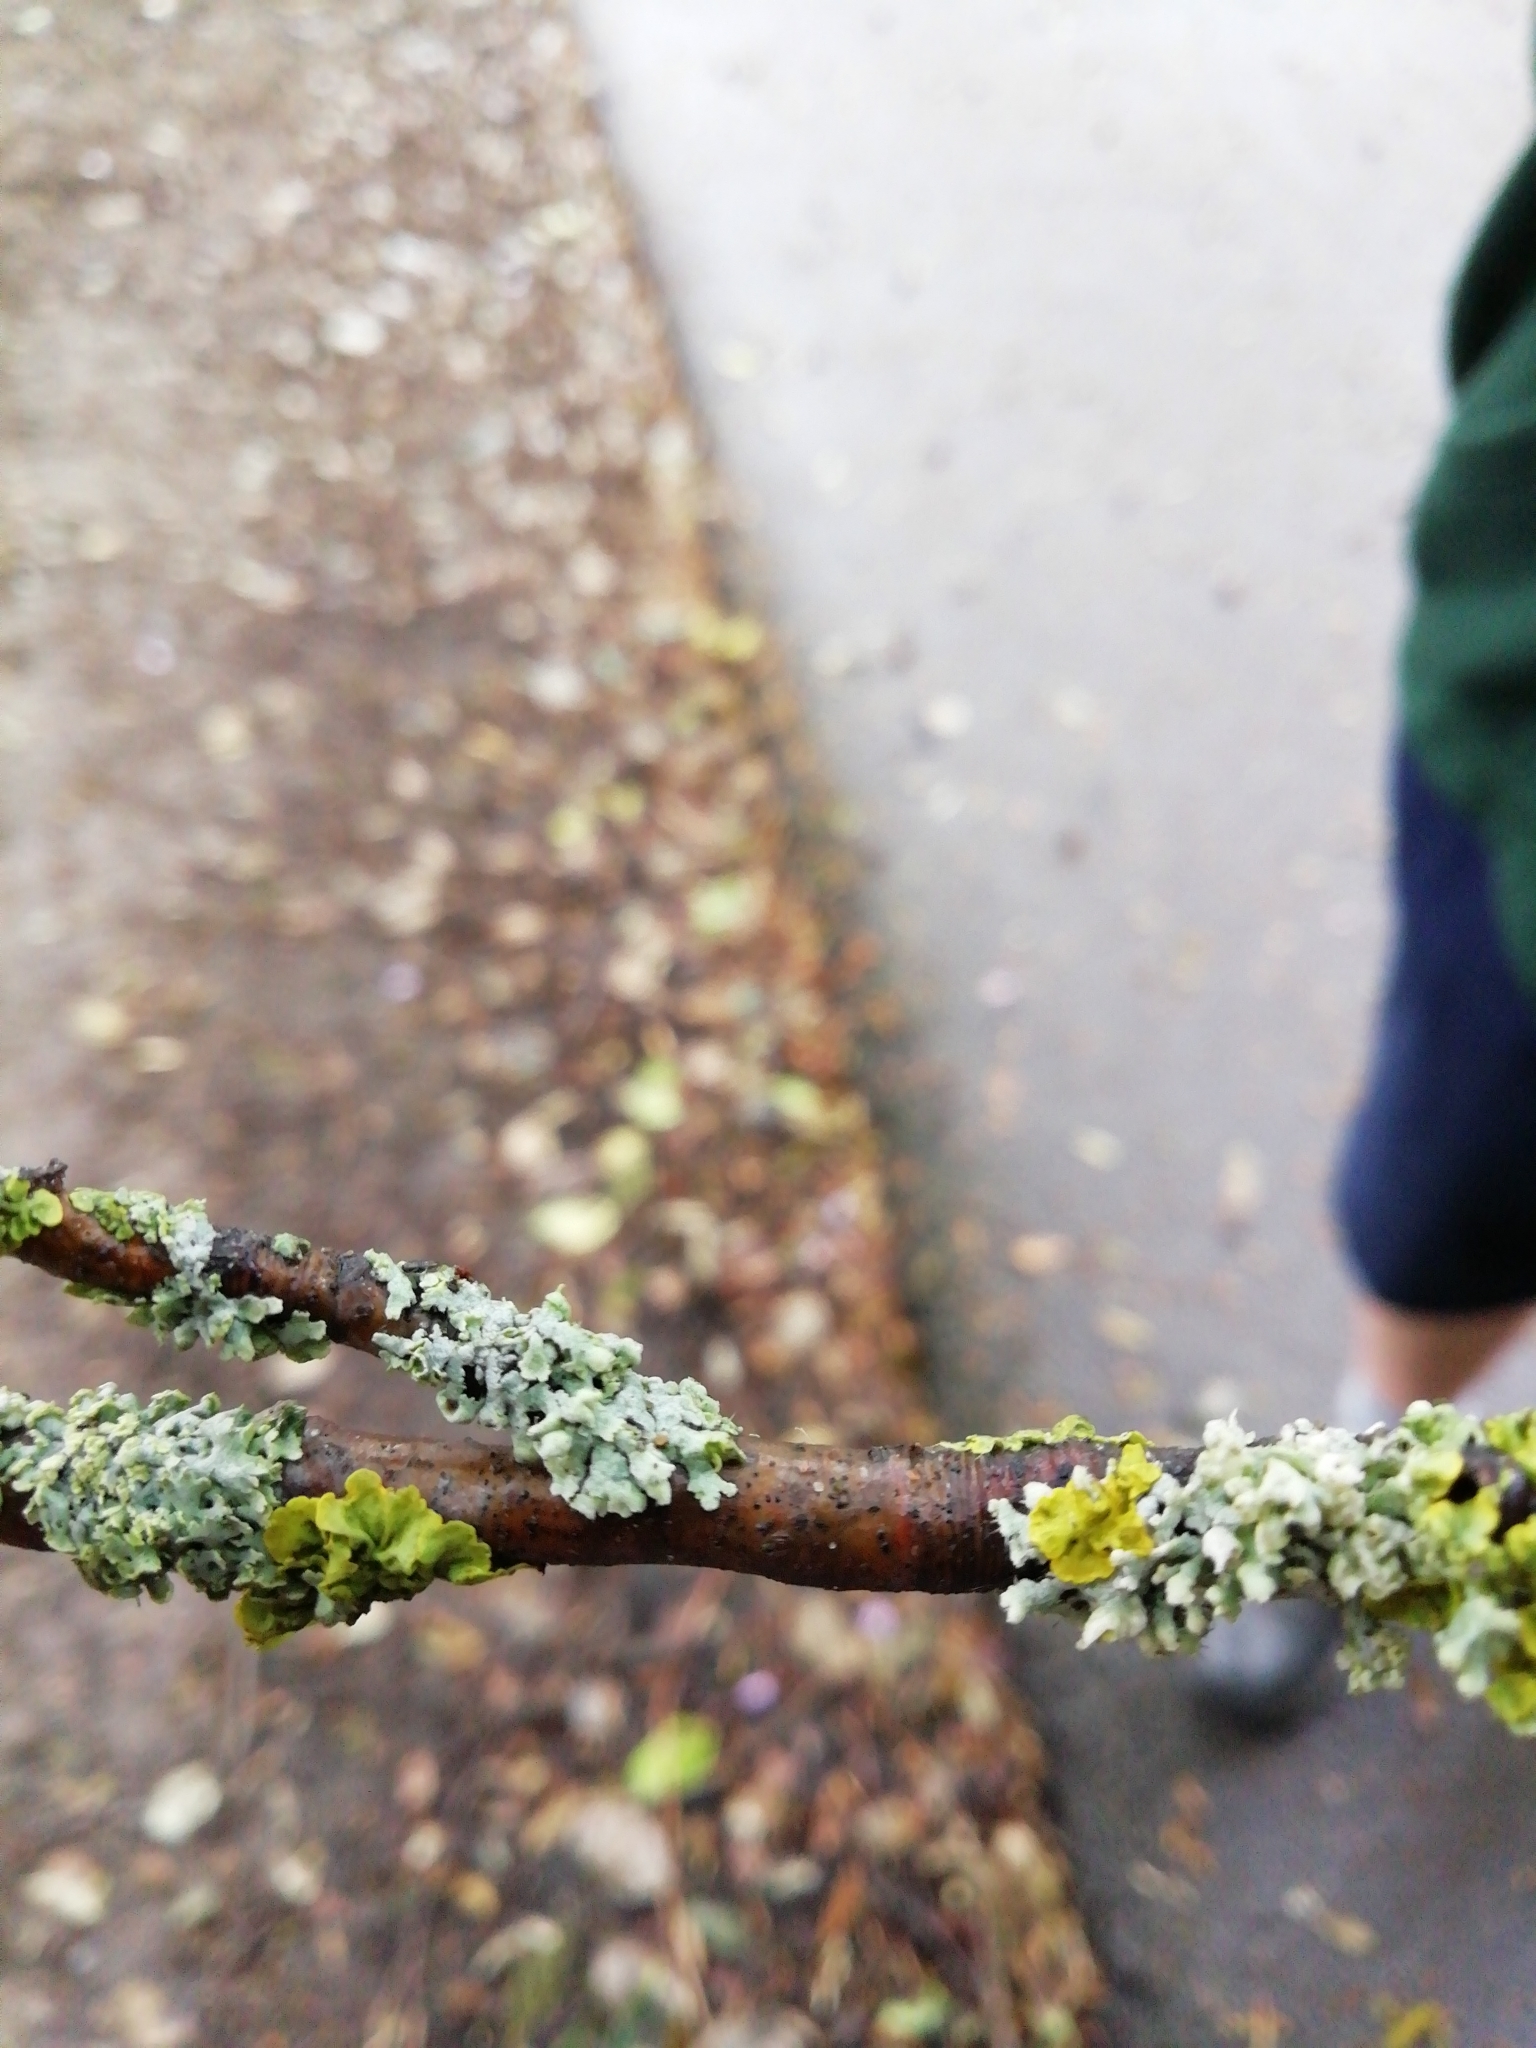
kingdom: Fungi
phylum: Ascomycota
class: Lecanoromycetes
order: Caliciales
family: Physciaceae
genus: Physcia
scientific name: Physcia adscendens
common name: Hooded rosette lichen
